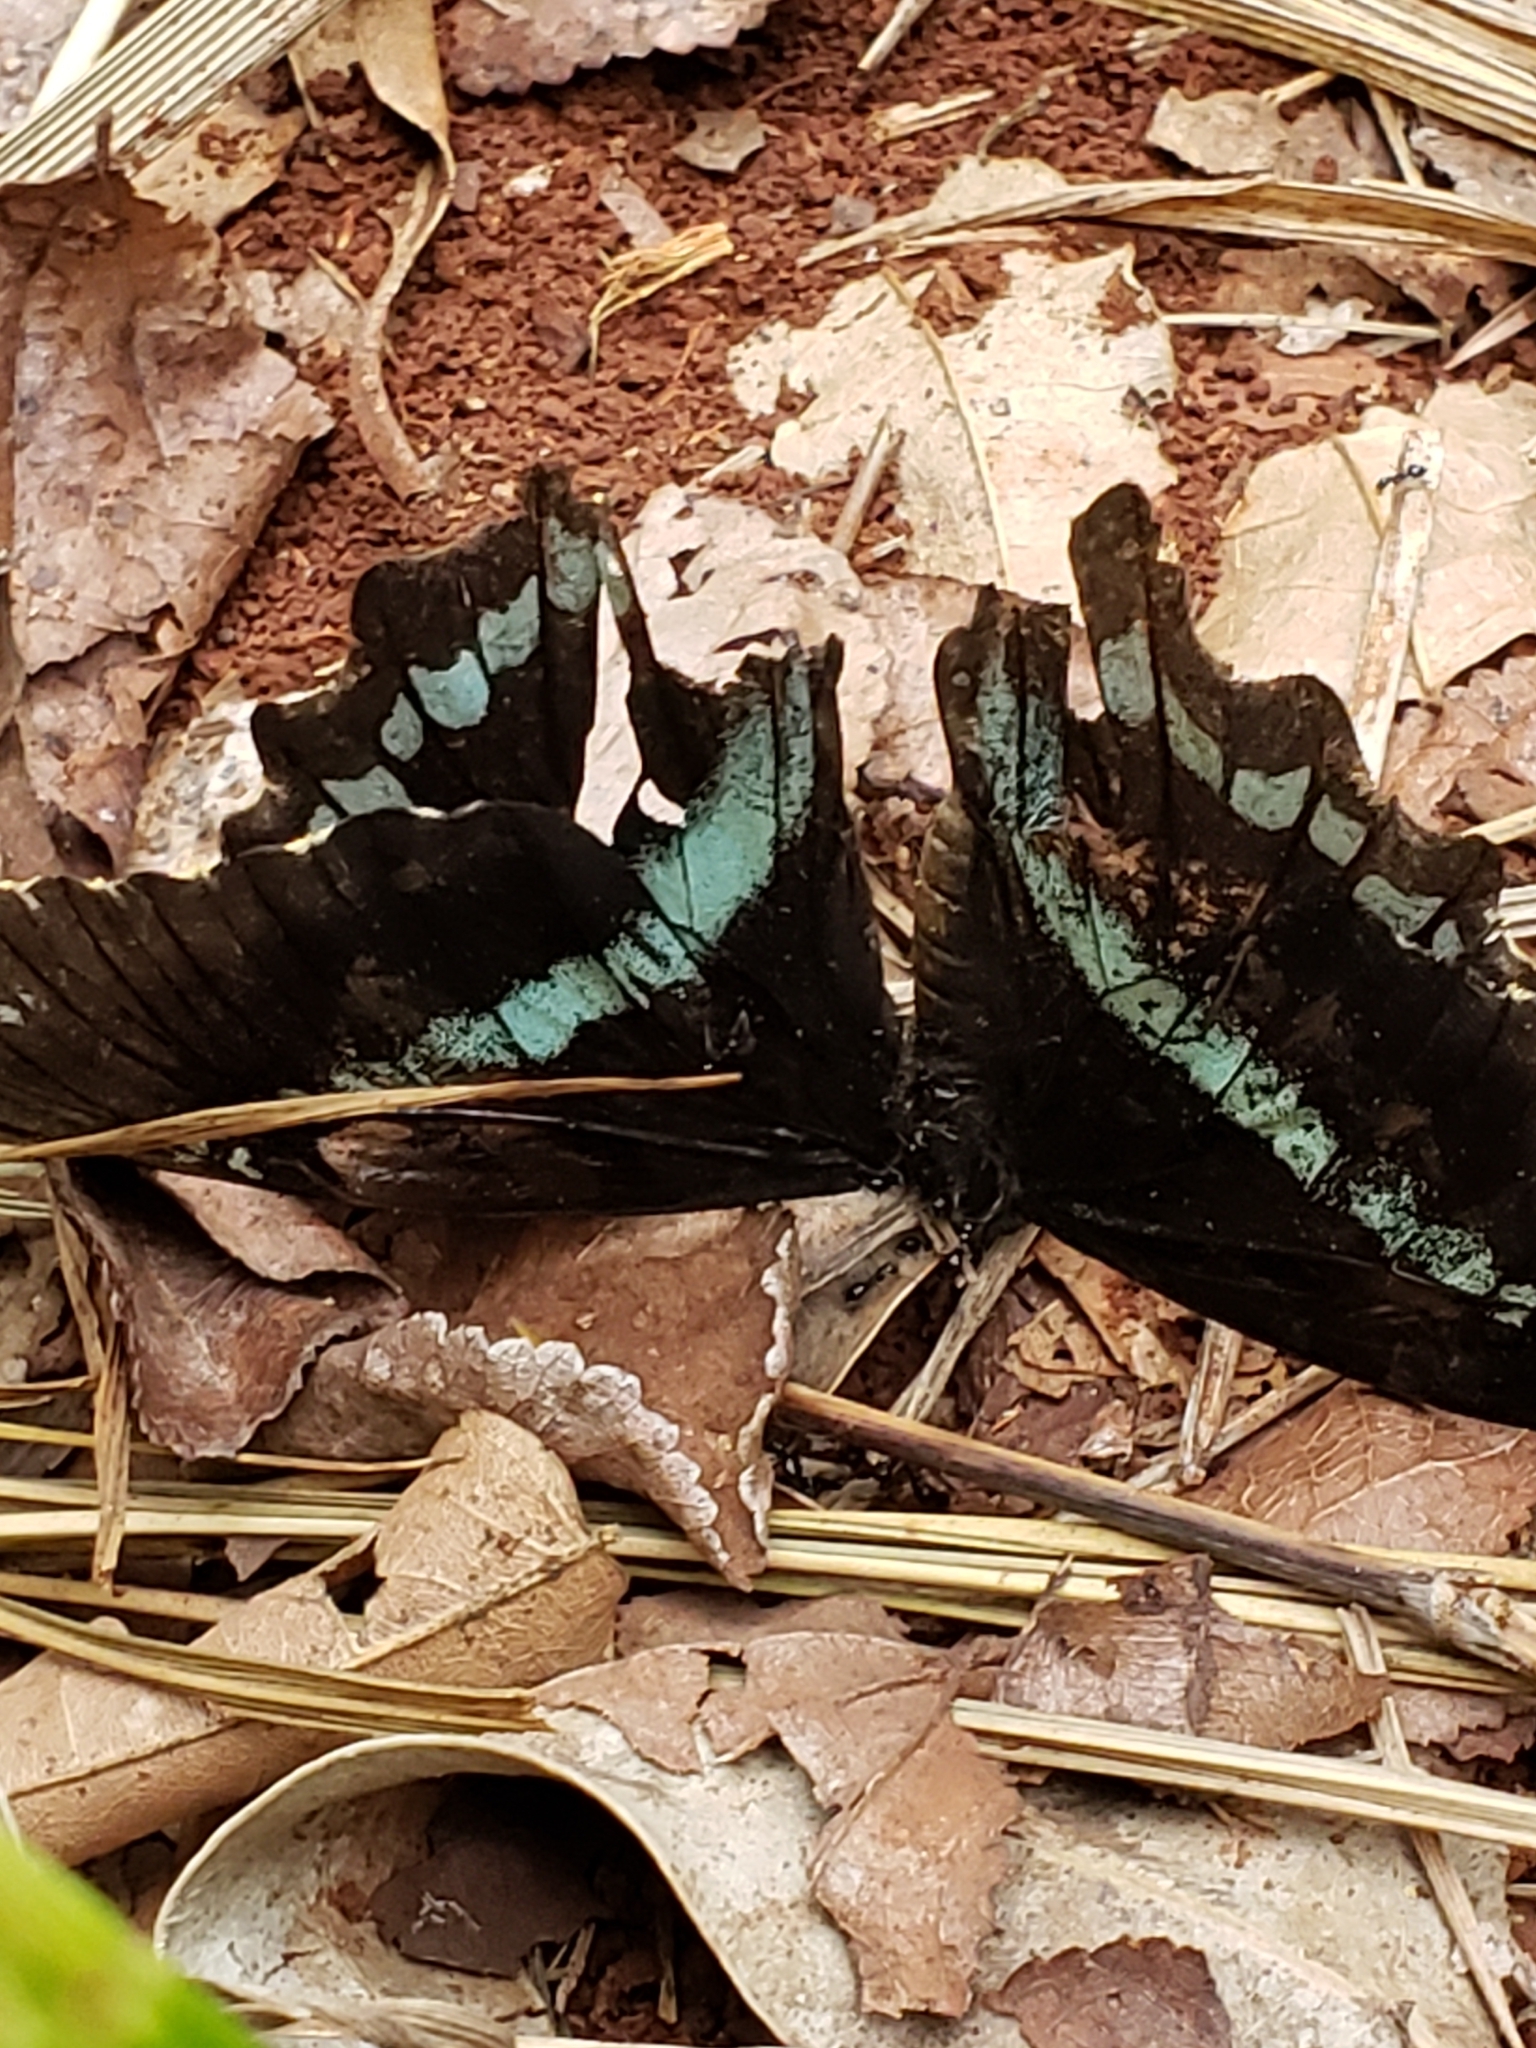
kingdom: Animalia
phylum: Arthropoda
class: Insecta
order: Lepidoptera
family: Papilionidae
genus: Papilio
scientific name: Papilio nireus
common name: Greenbanded swallowtail
